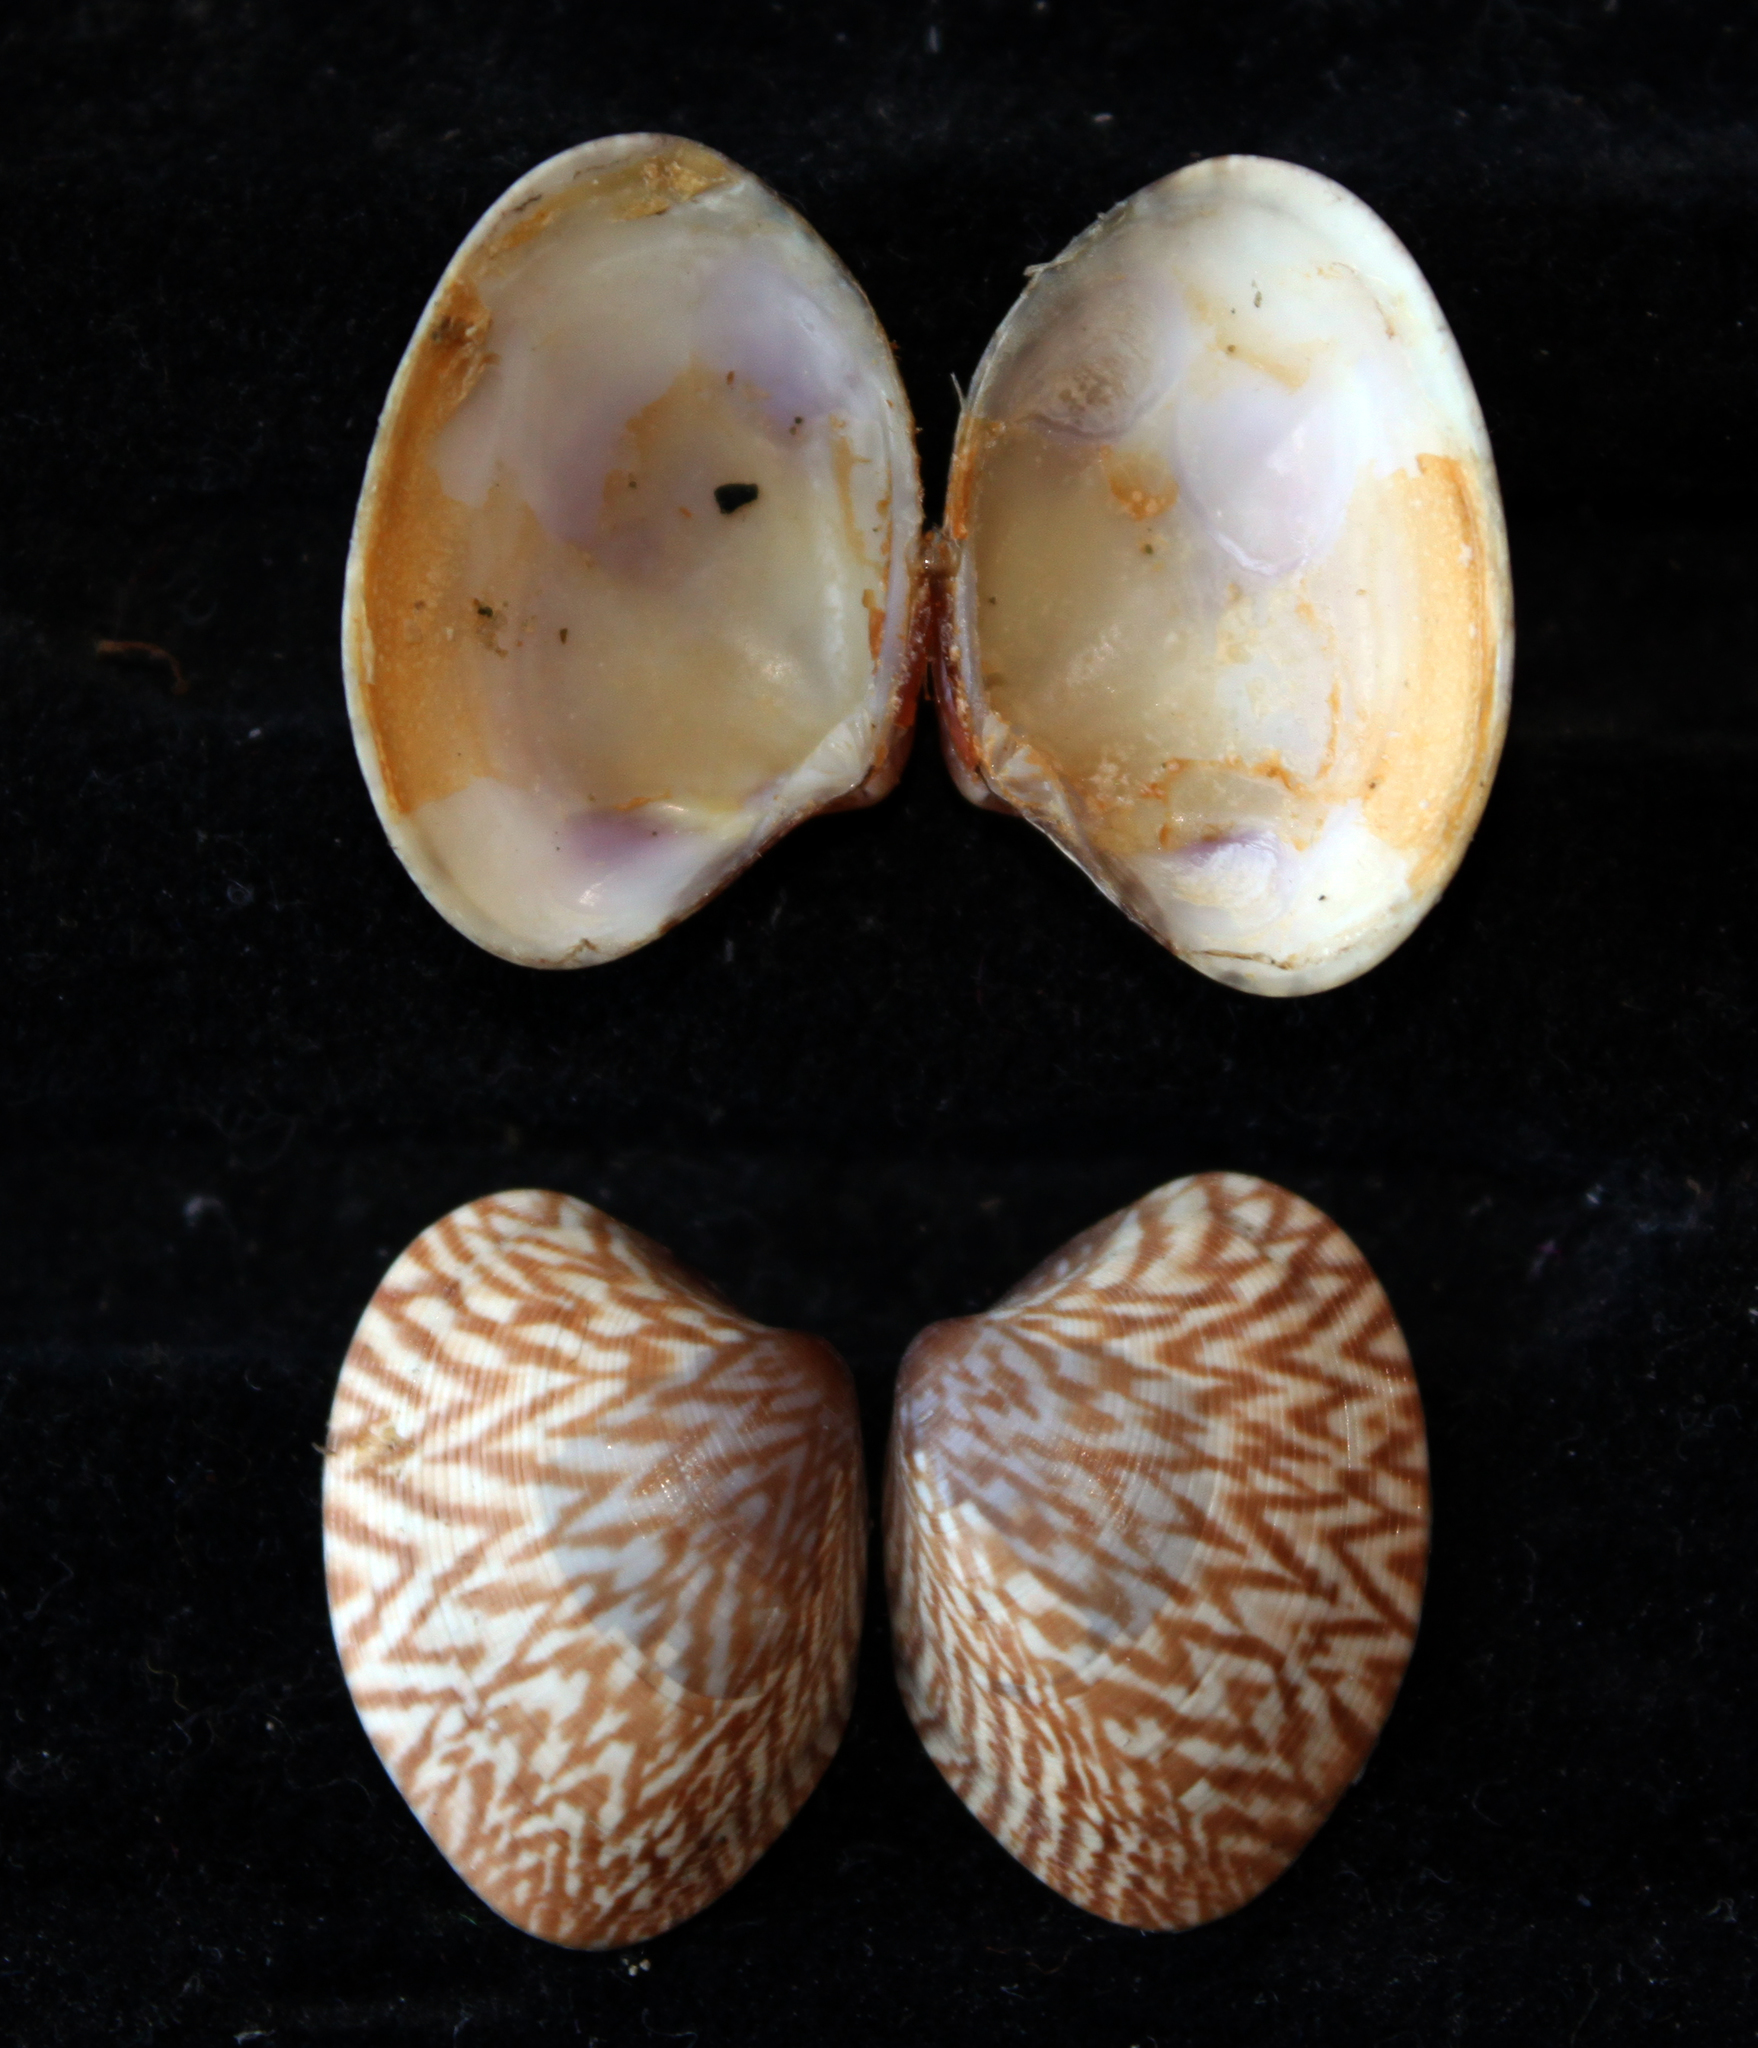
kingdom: Animalia
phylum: Mollusca
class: Bivalvia
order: Venerida
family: Veneridae
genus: Polititapes
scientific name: Polititapes aureus
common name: Golden carpet shell
